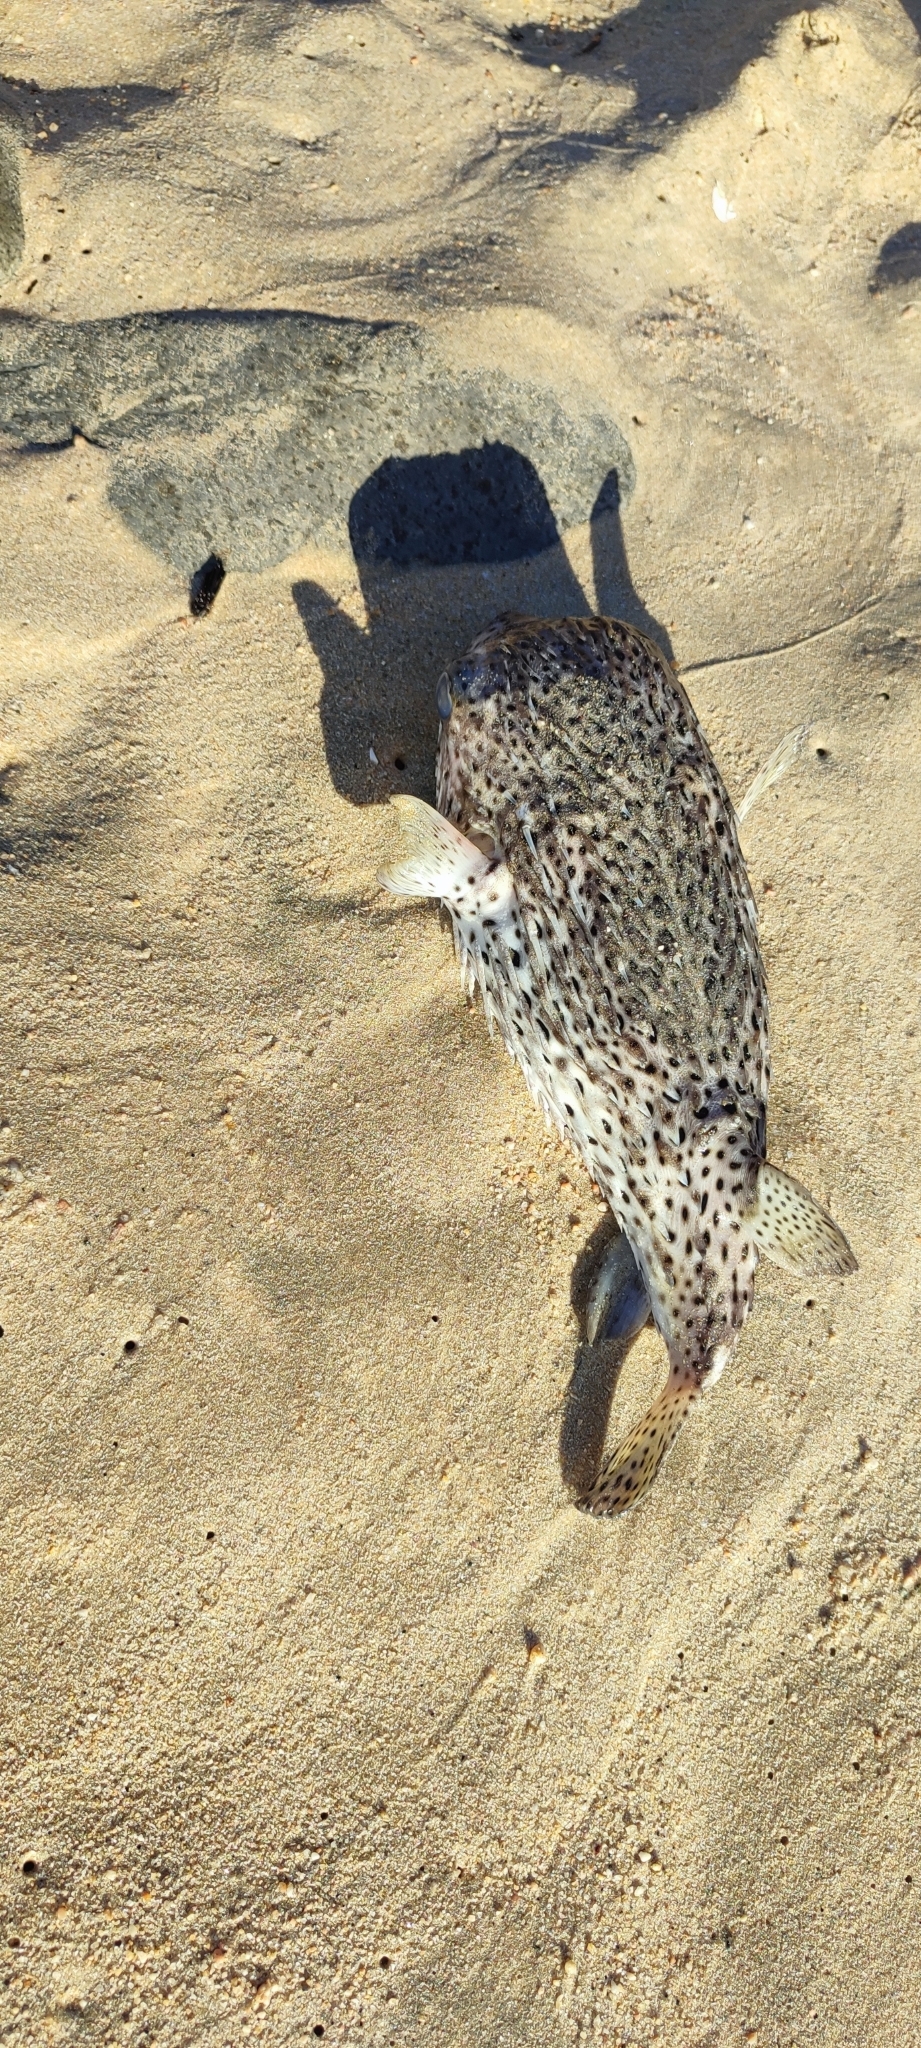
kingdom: Animalia
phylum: Chordata
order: Tetraodontiformes
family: Diodontidae
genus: Diodon
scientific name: Diodon hystrix
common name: Giant porcupinefish
